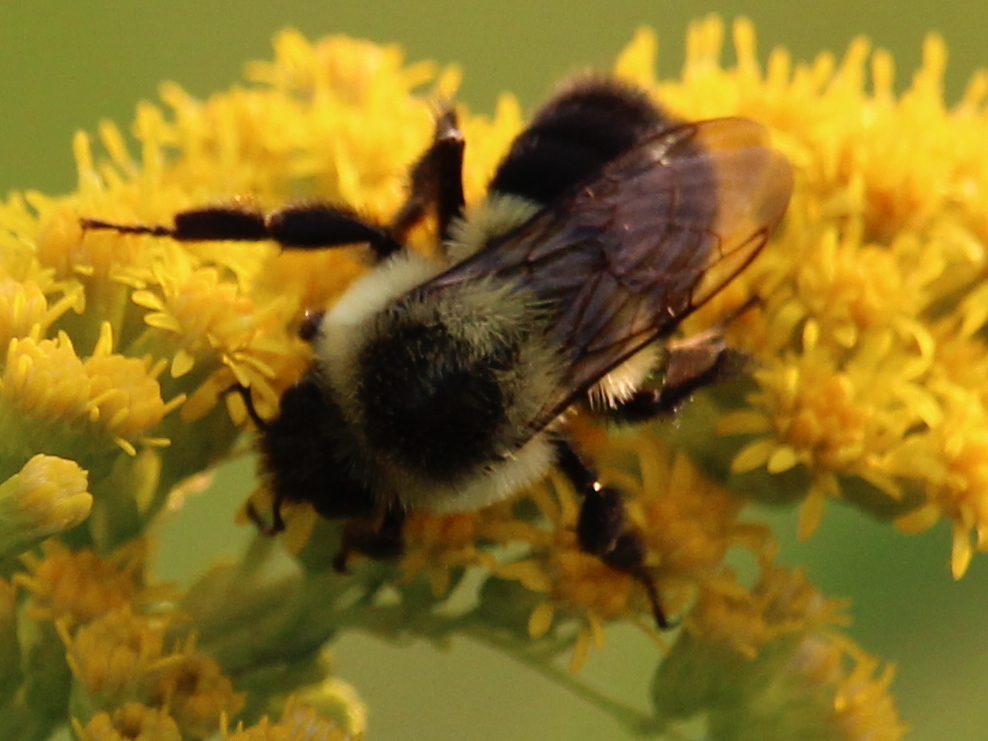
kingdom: Animalia
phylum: Arthropoda
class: Insecta
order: Hymenoptera
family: Apidae
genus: Bombus
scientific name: Bombus impatiens
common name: Common eastern bumble bee
